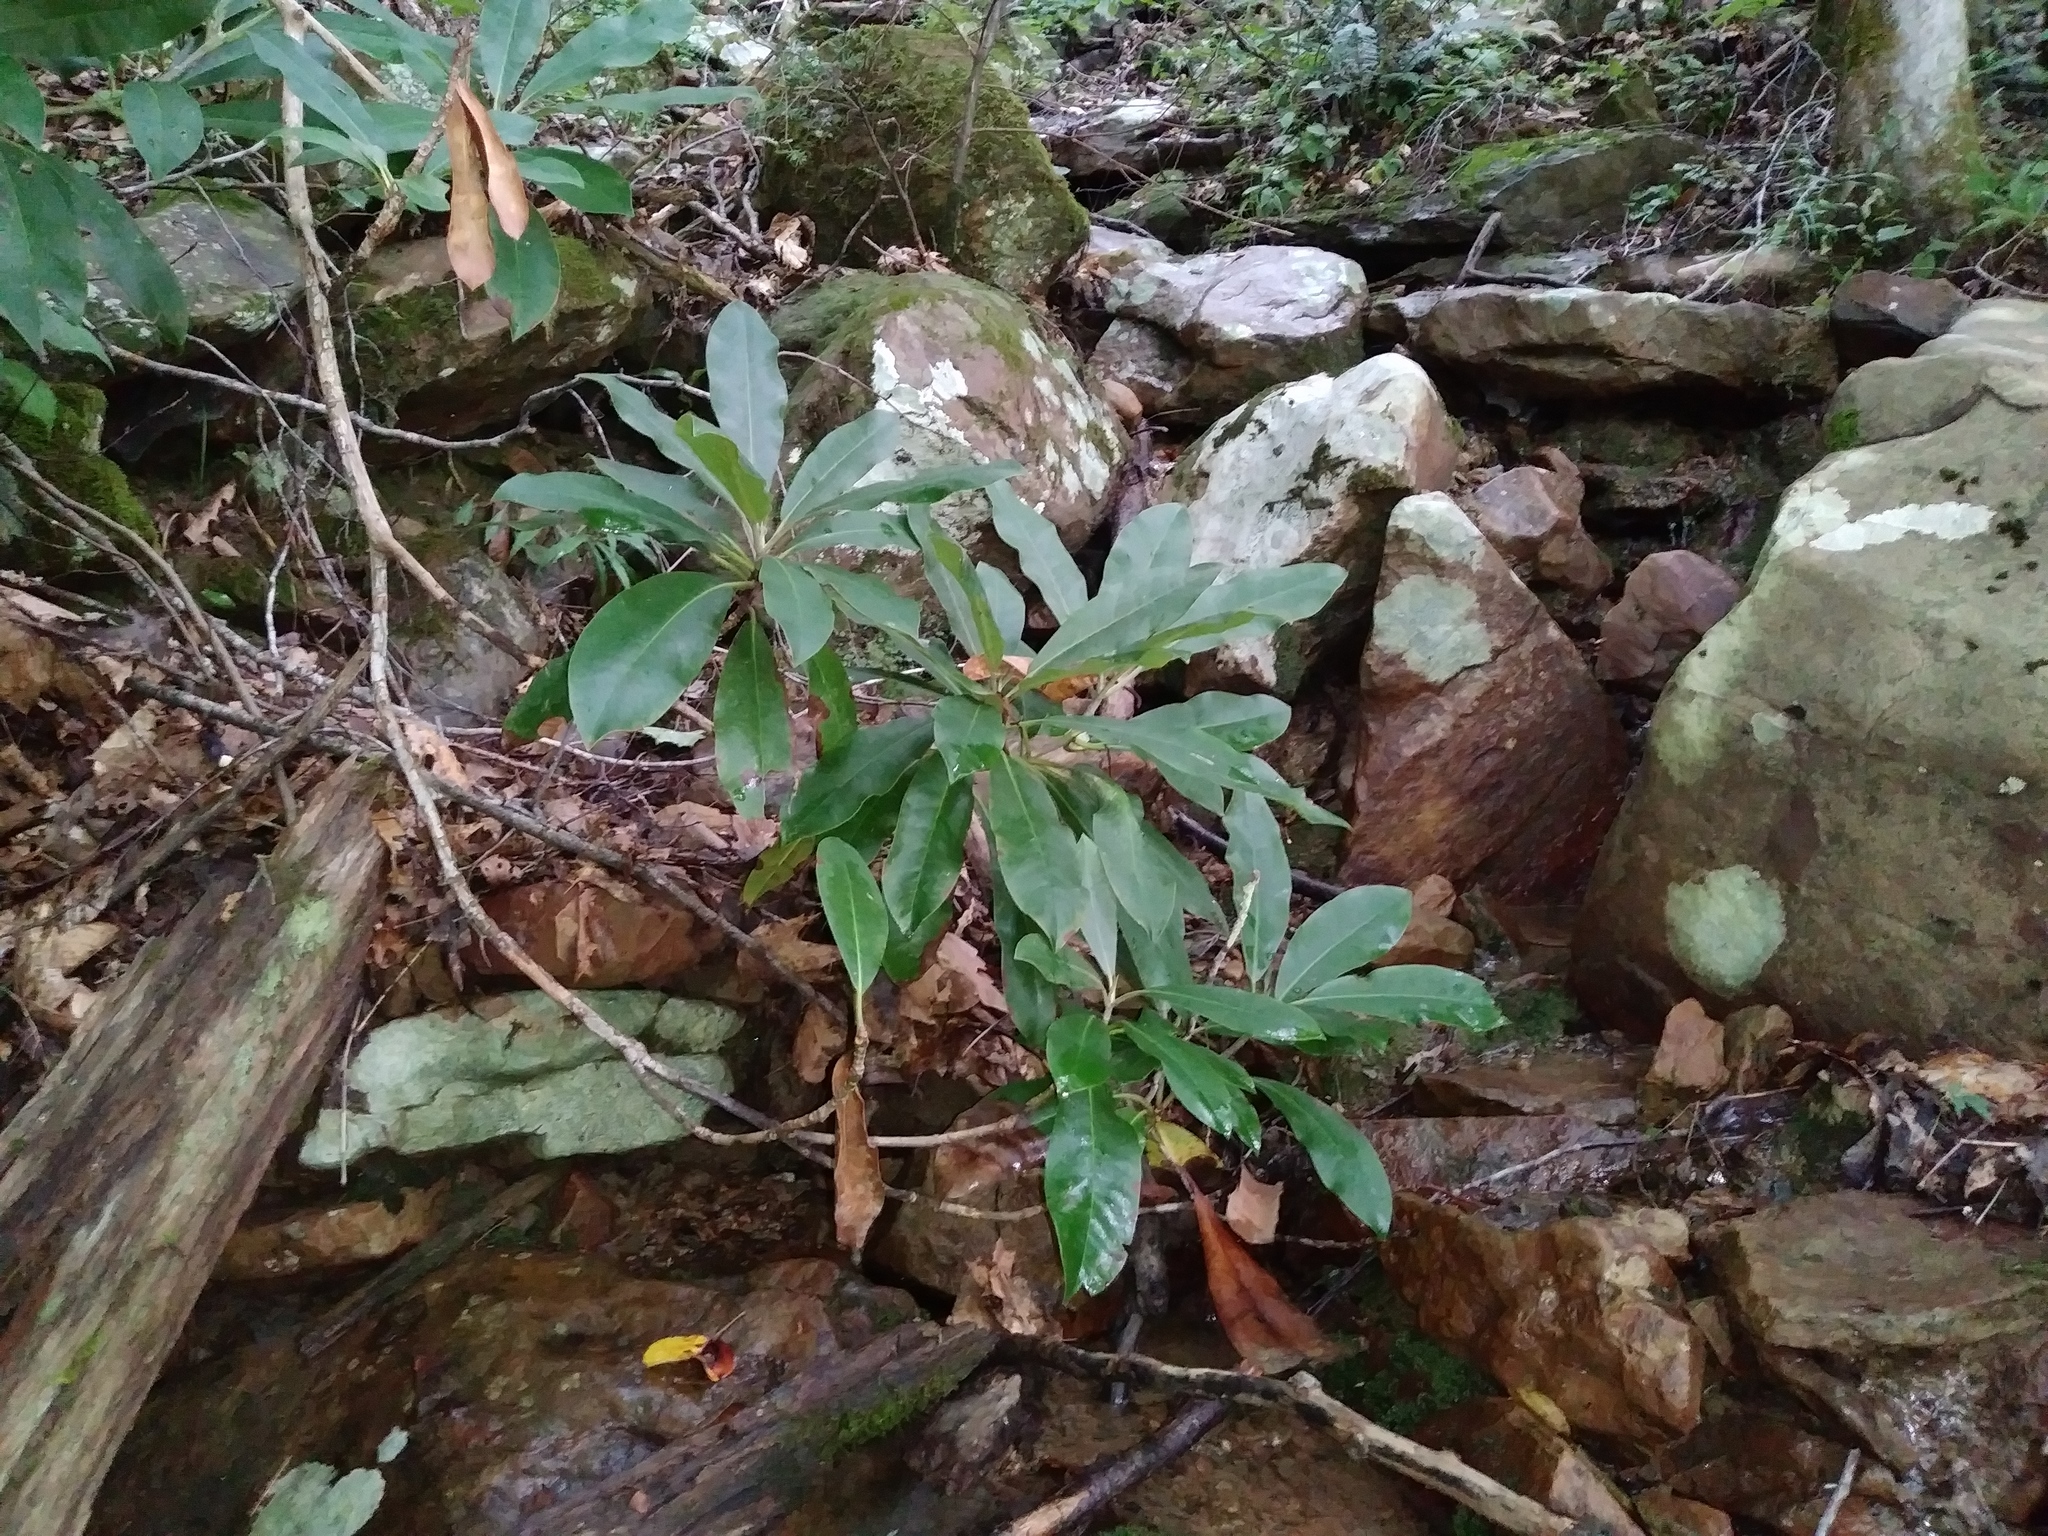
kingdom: Plantae
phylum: Tracheophyta
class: Magnoliopsida
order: Ericales
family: Ericaceae
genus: Rhododendron
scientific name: Rhododendron maximum
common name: Great rhododendron
